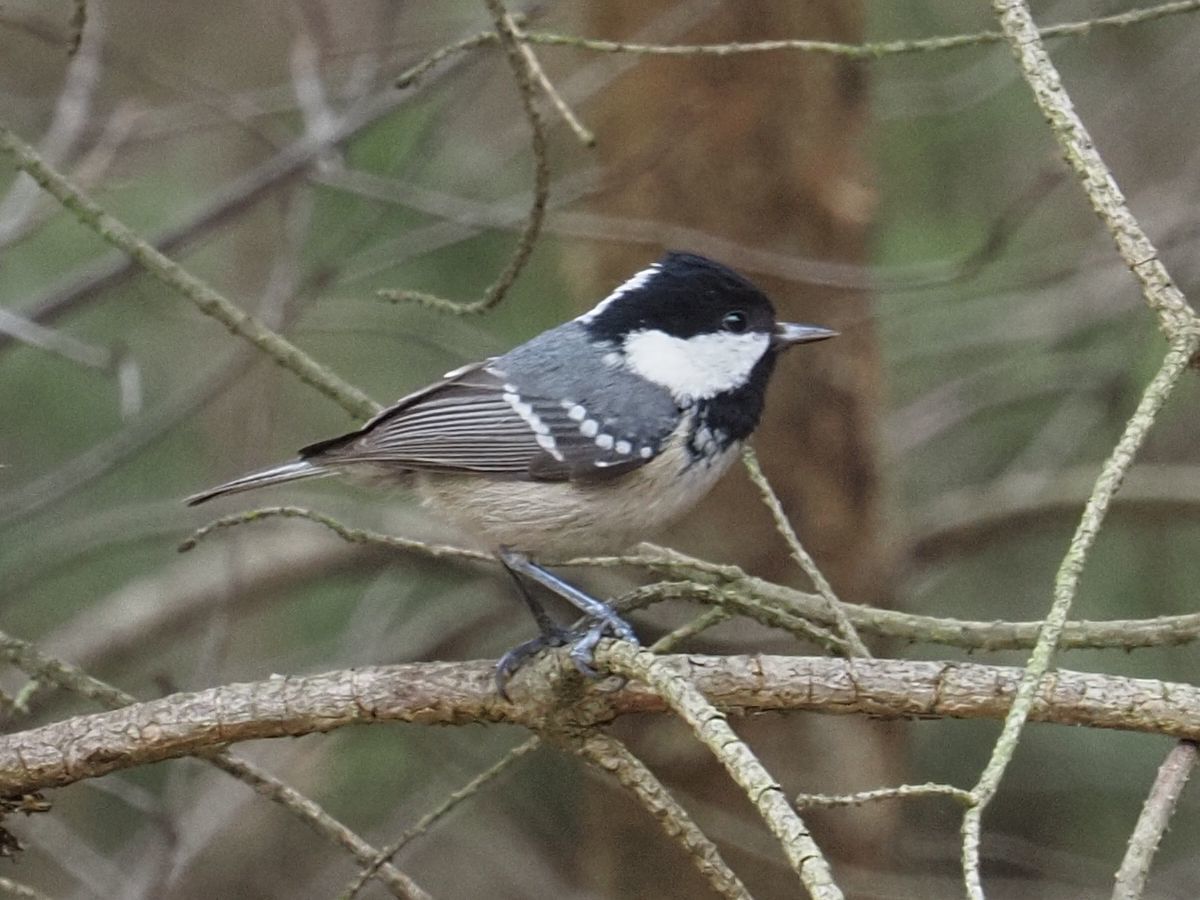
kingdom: Animalia
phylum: Chordata
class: Aves
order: Passeriformes
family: Paridae
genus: Periparus
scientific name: Periparus ater
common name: Coal tit
